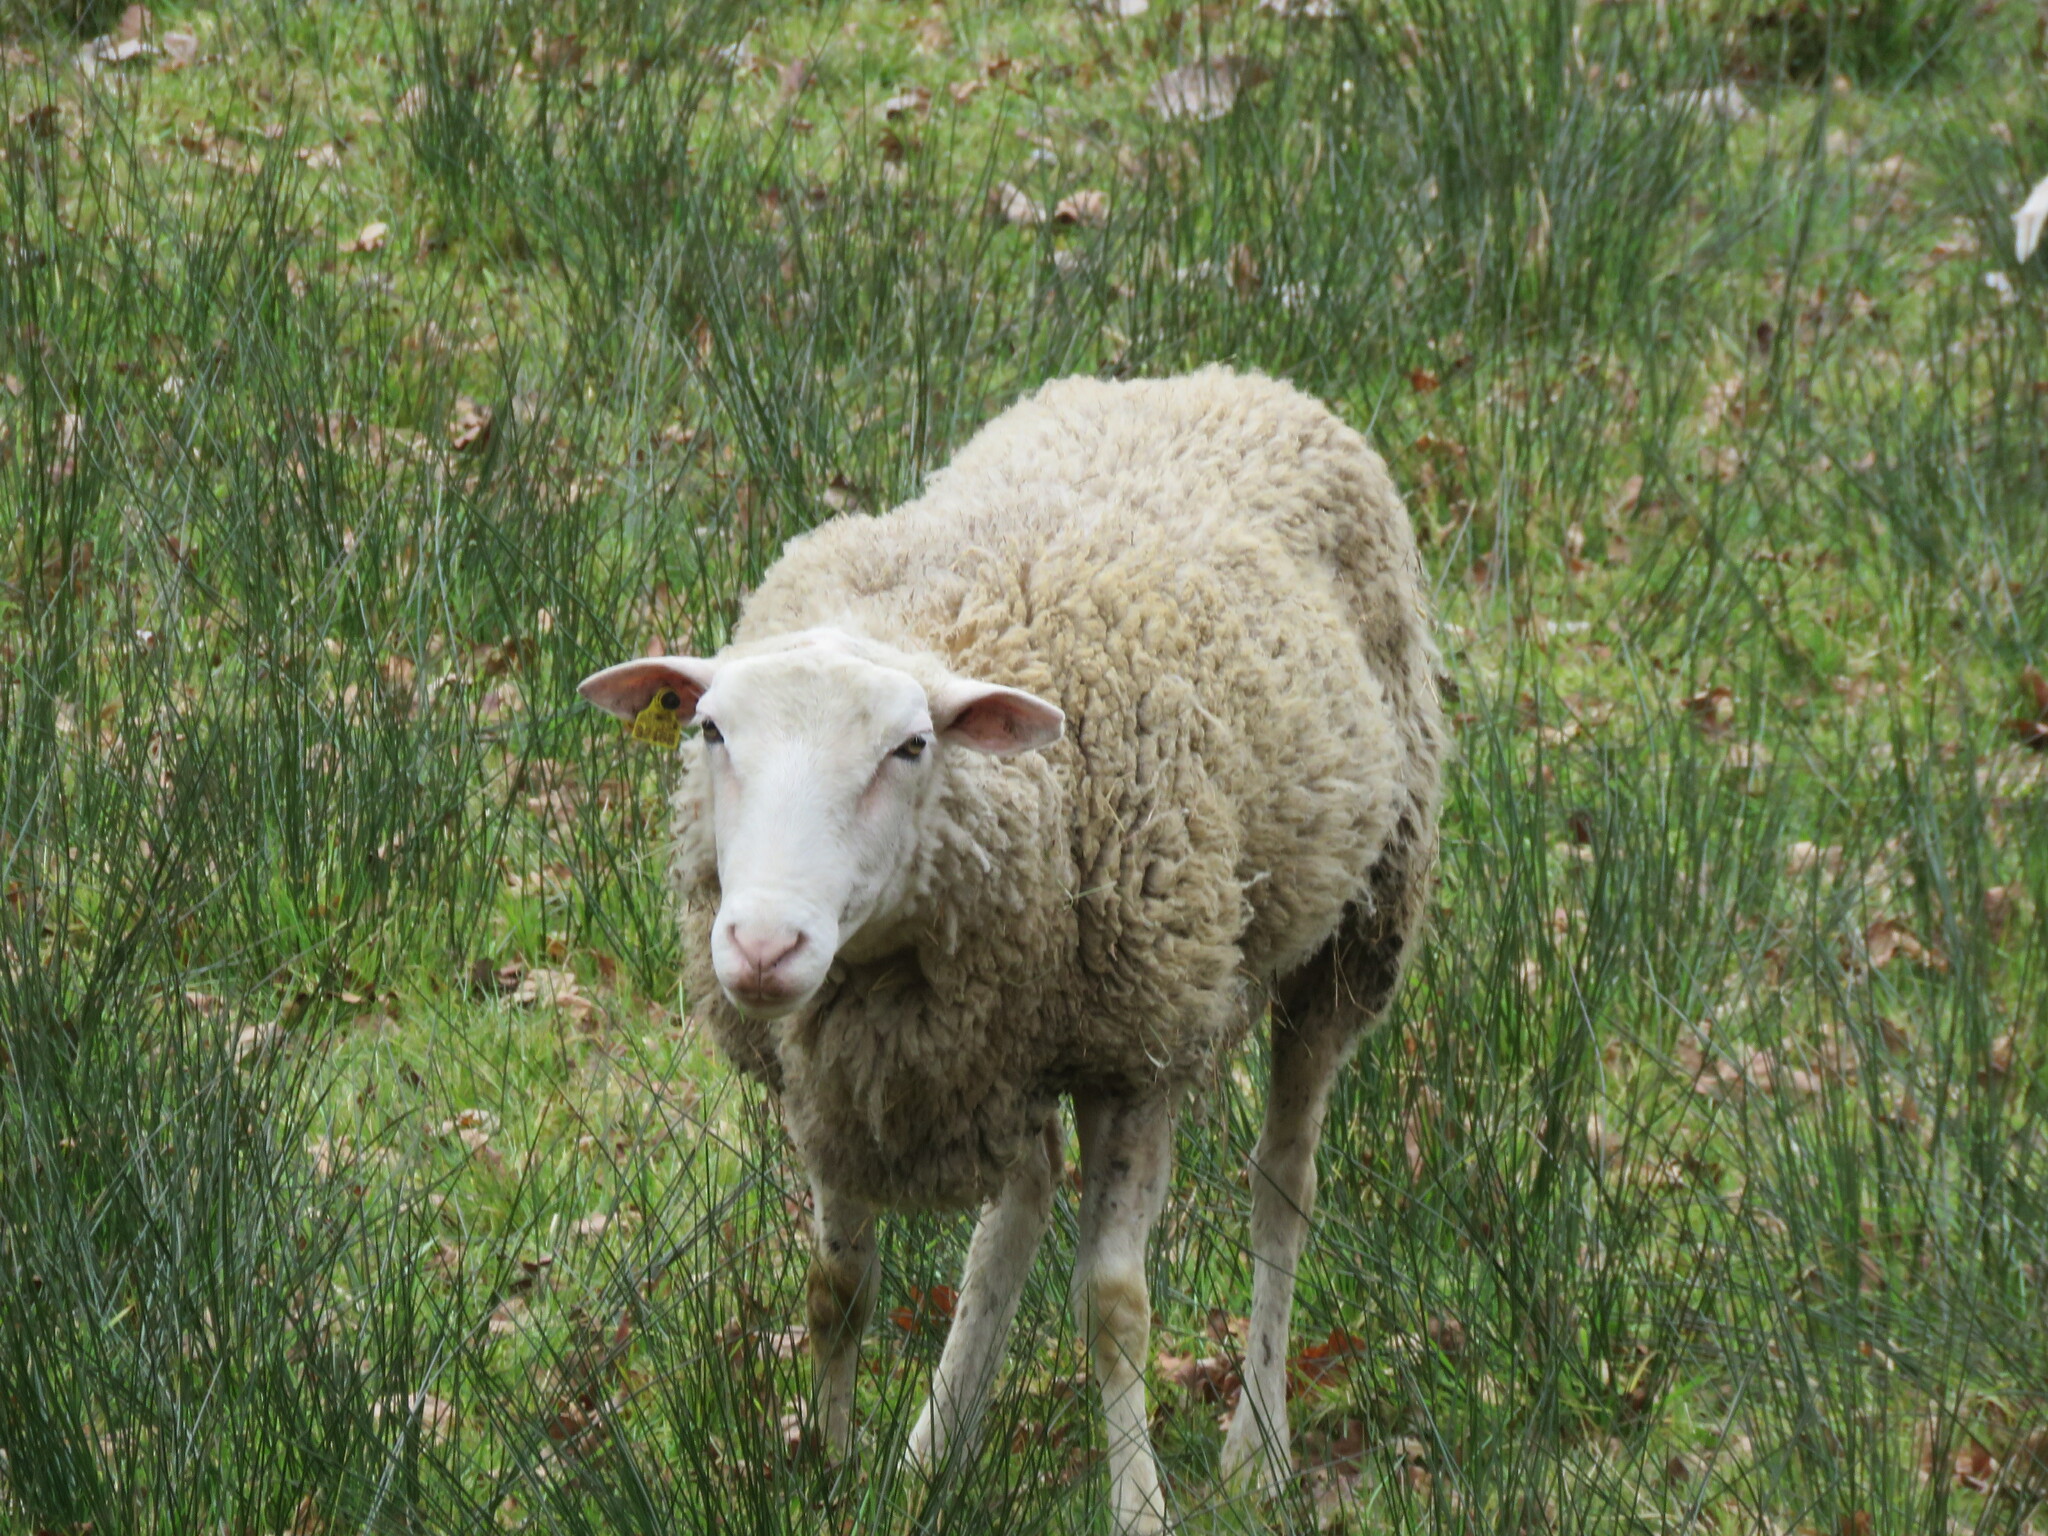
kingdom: Animalia
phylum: Chordata
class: Mammalia
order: Artiodactyla
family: Bovidae
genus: Ovis
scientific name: Ovis aries
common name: Domestic sheep
